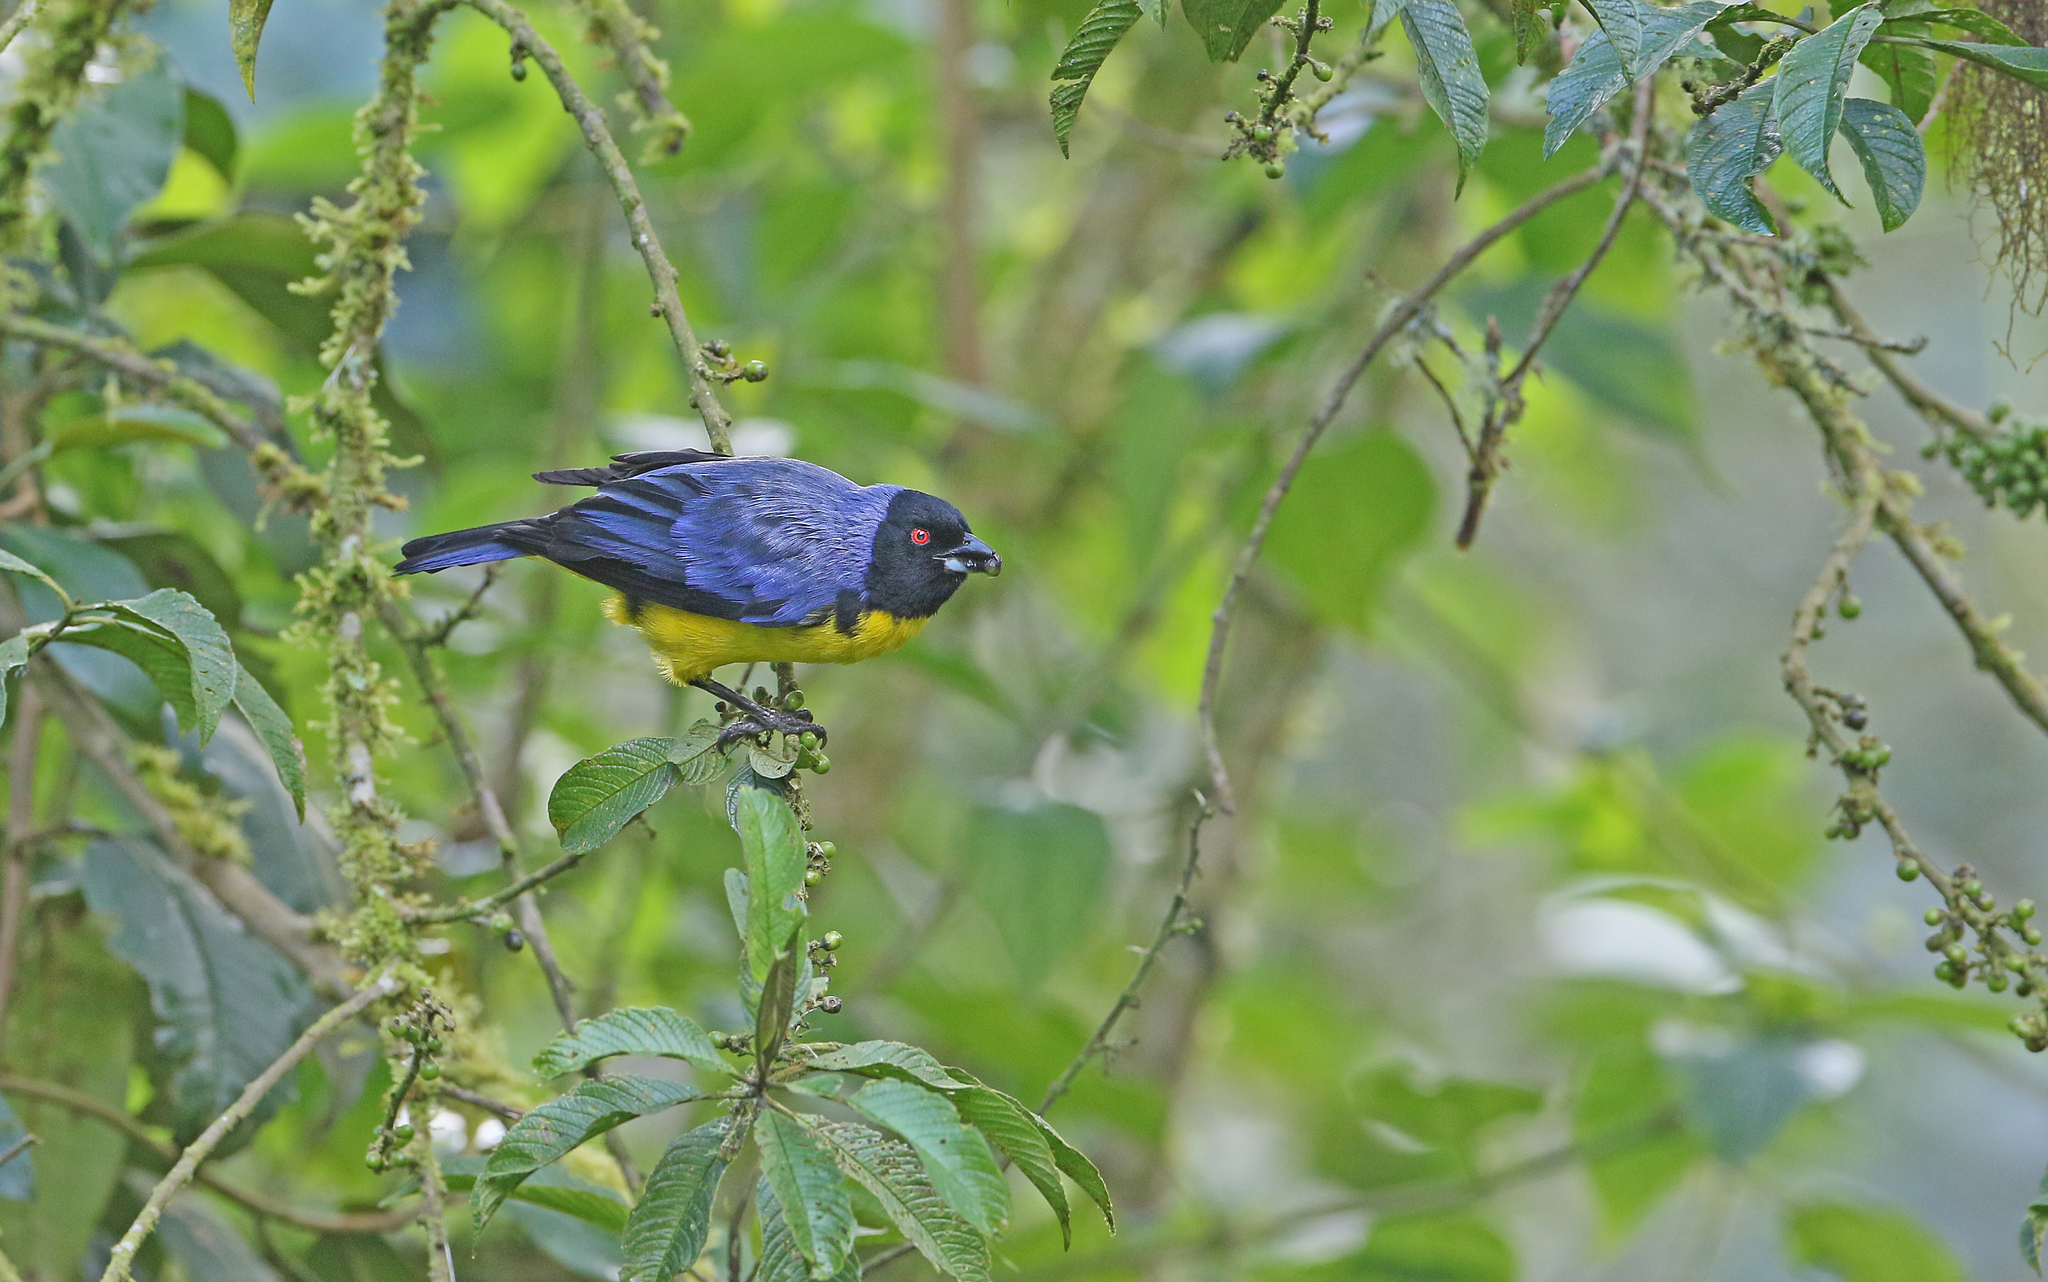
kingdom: Animalia
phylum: Chordata
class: Aves
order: Passeriformes
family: Thraupidae
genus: Buthraupis
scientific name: Buthraupis montana
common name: Hooded mountain tanager
